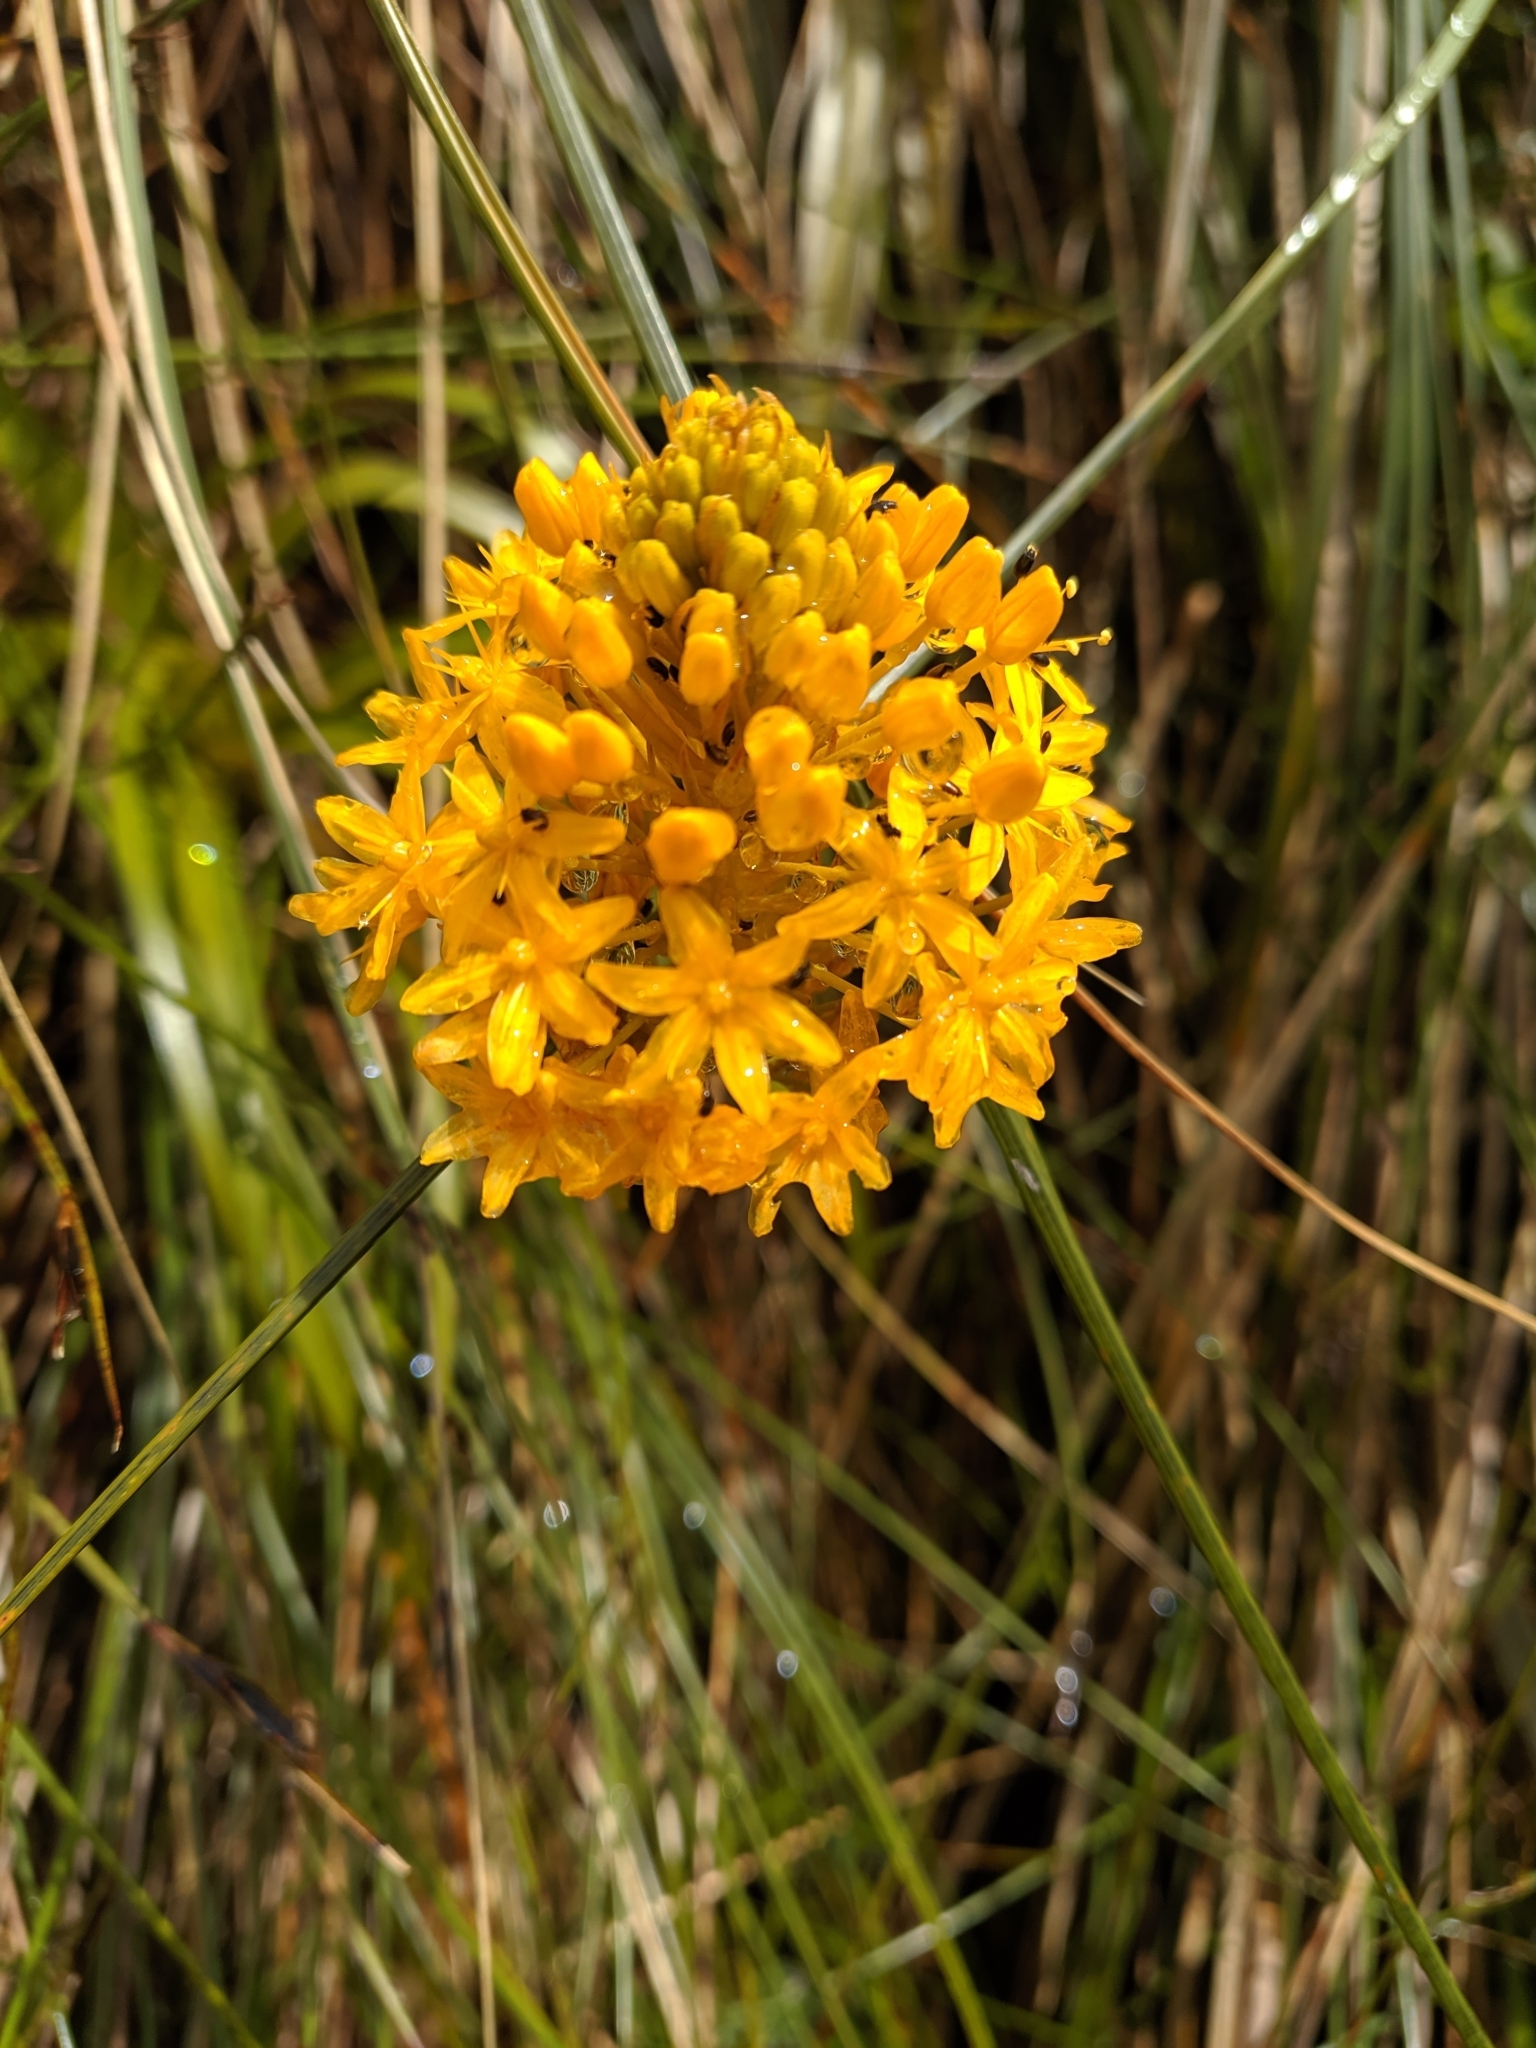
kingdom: Plantae
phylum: Tracheophyta
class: Liliopsida
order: Asparagales
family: Asphodelaceae
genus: Bulbinella
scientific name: Bulbinella gibbsii
